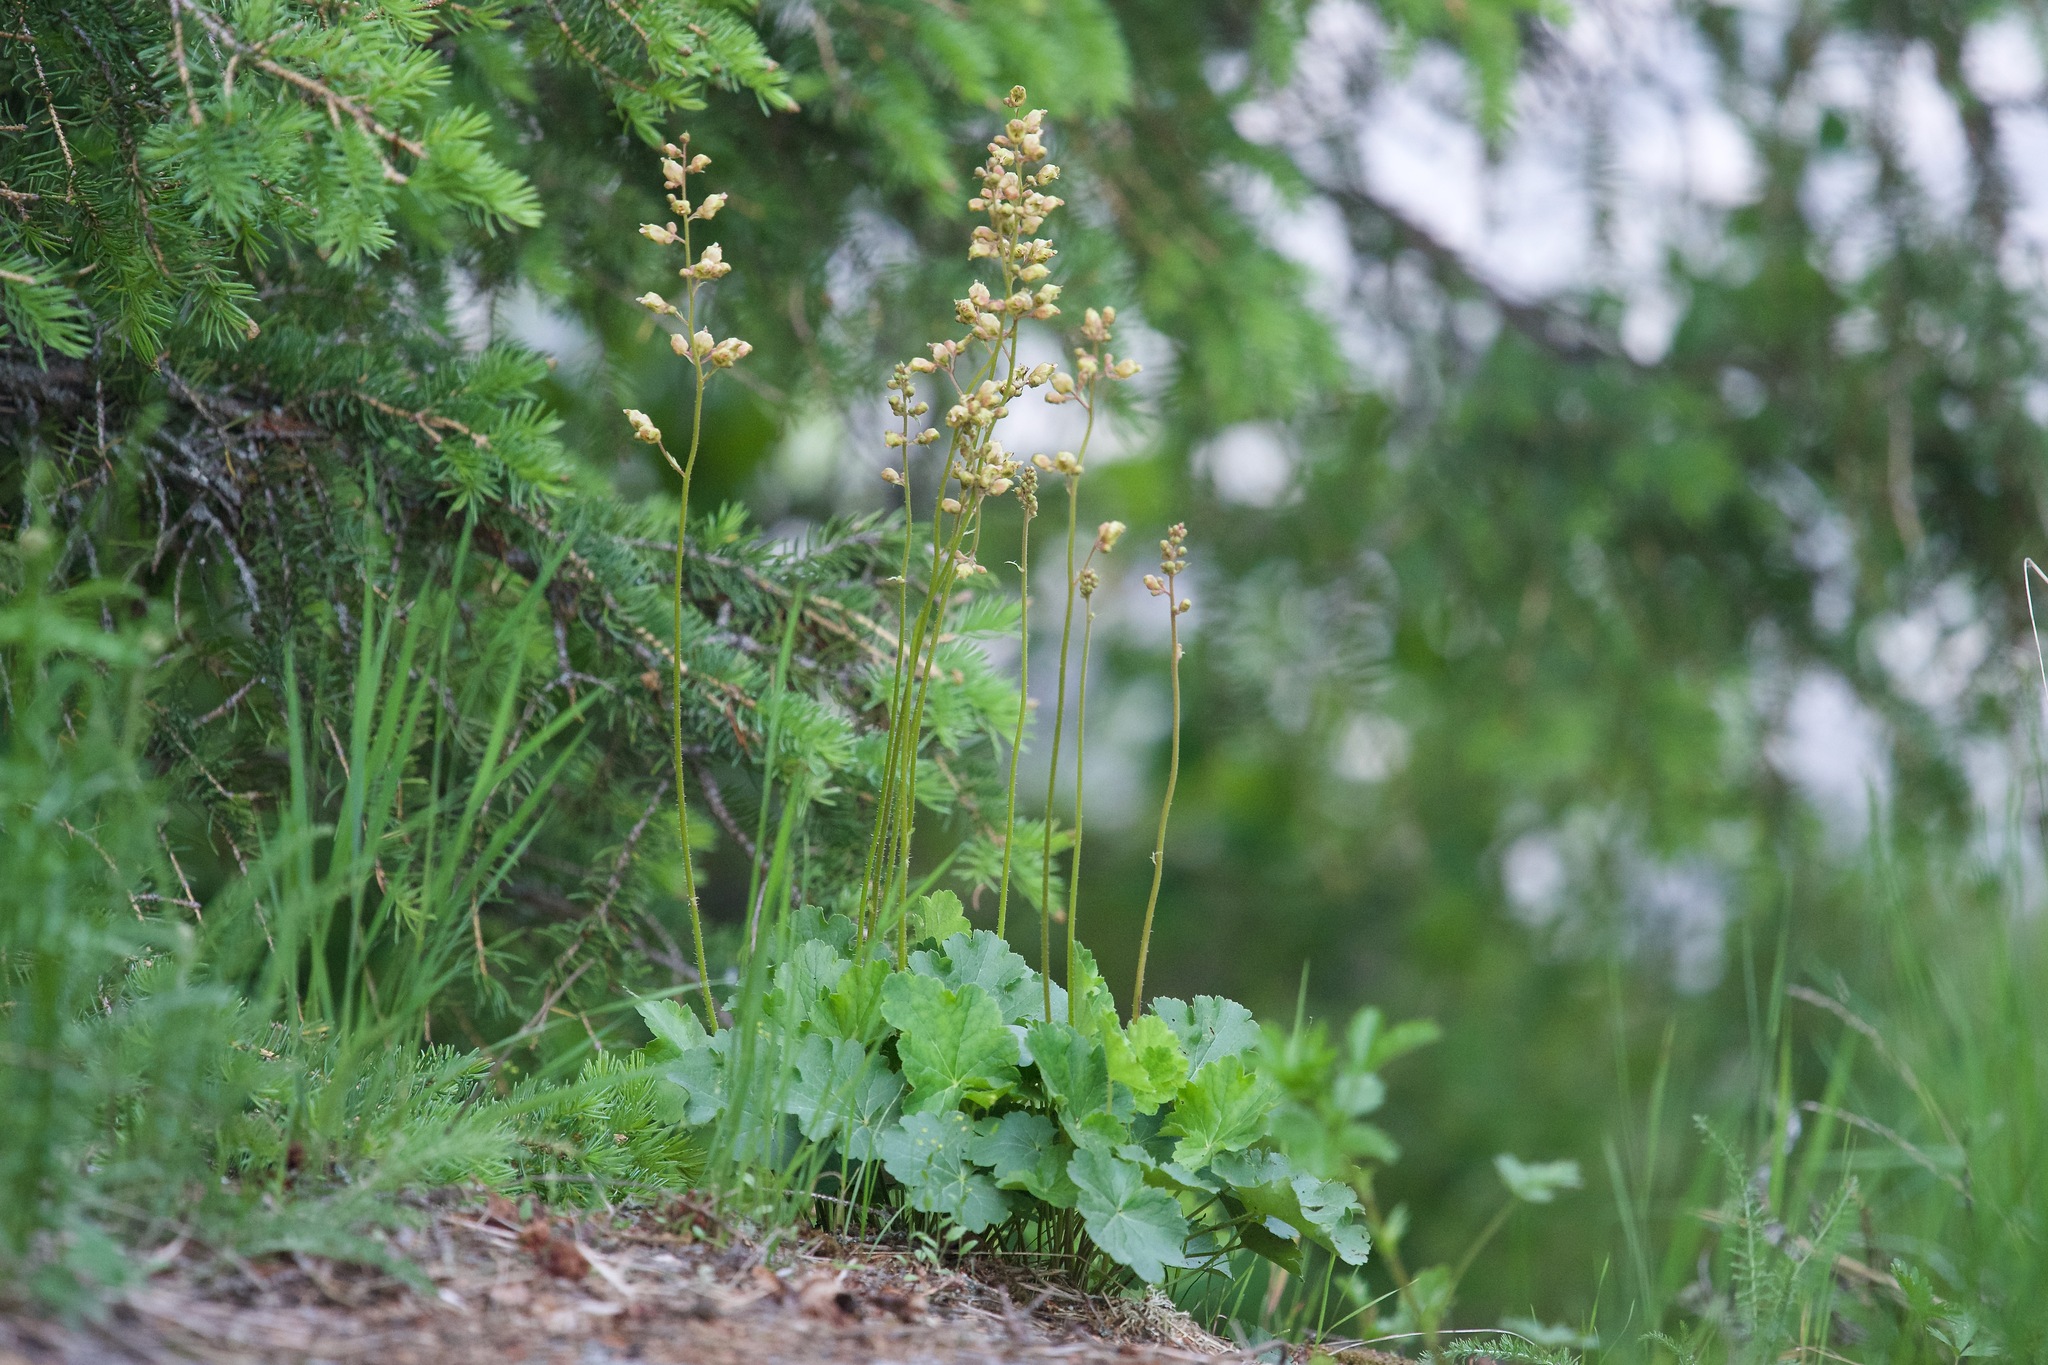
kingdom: Plantae
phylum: Tracheophyta
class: Magnoliopsida
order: Saxifragales
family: Saxifragaceae
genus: Heuchera
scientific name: Heuchera richardsonii
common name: Richardson's alumroot
